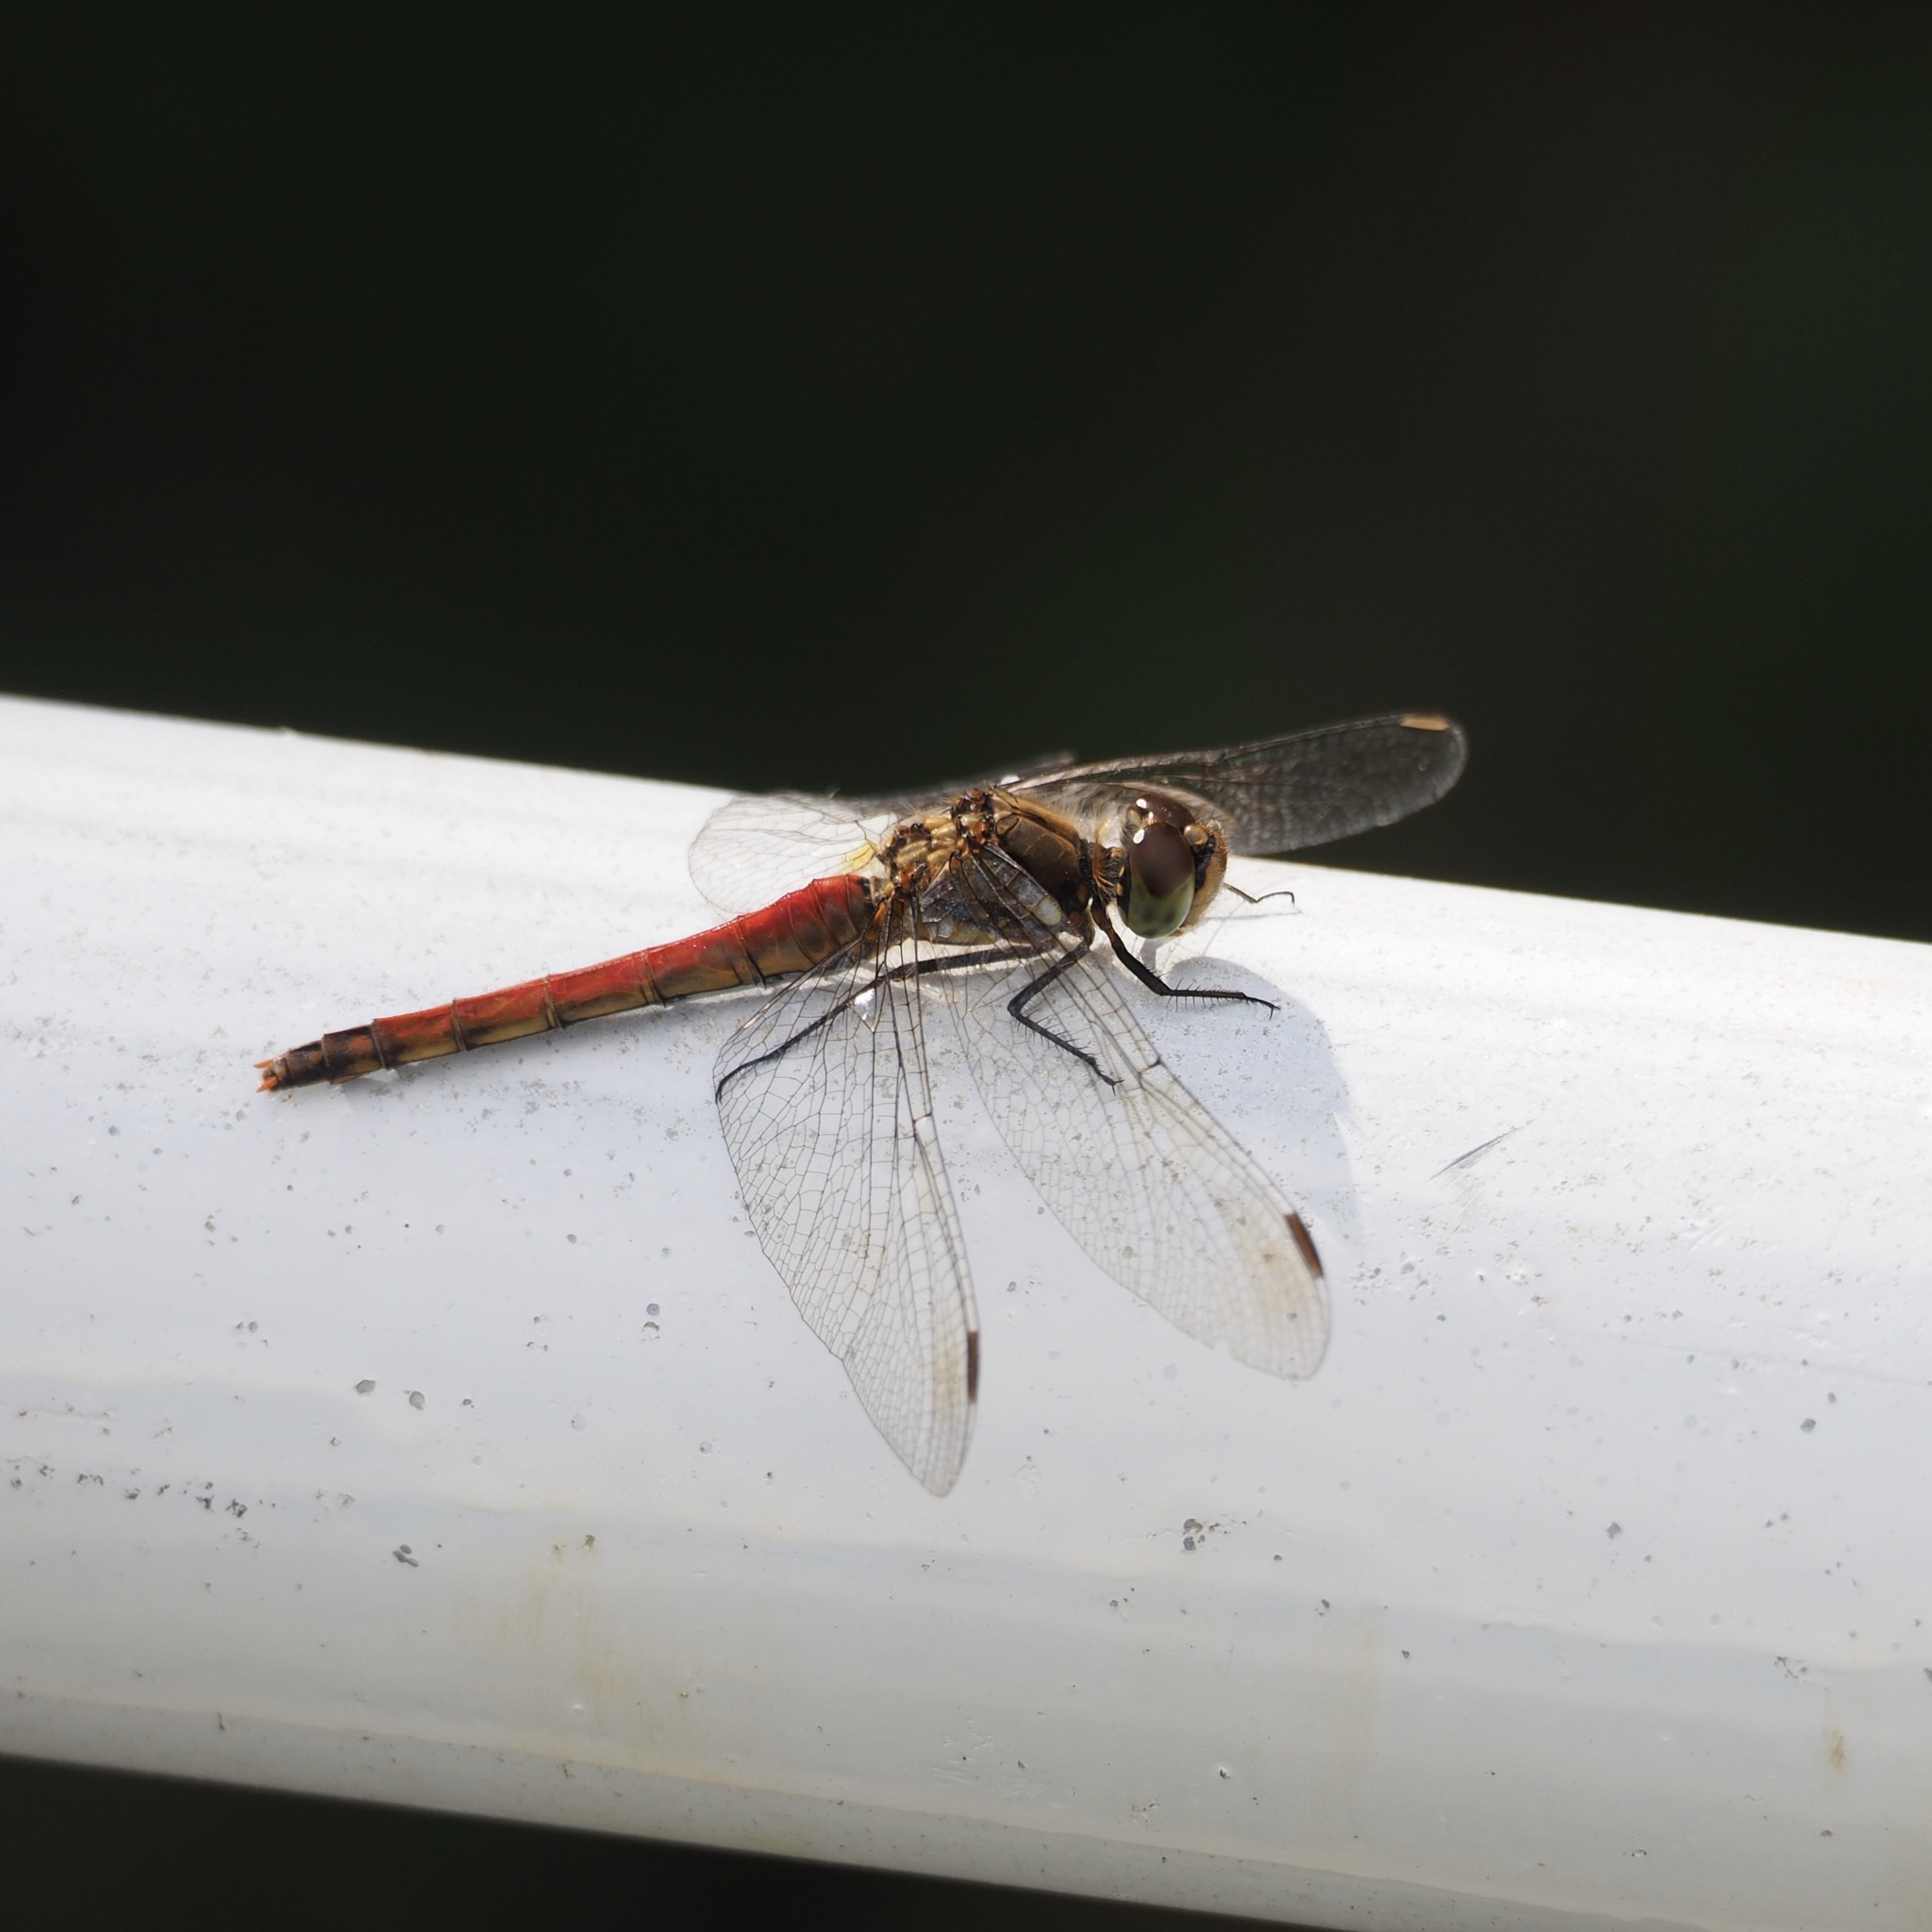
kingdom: Animalia
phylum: Arthropoda
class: Insecta
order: Odonata
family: Libellulidae
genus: Sympetrum
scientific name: Sympetrum frequens
